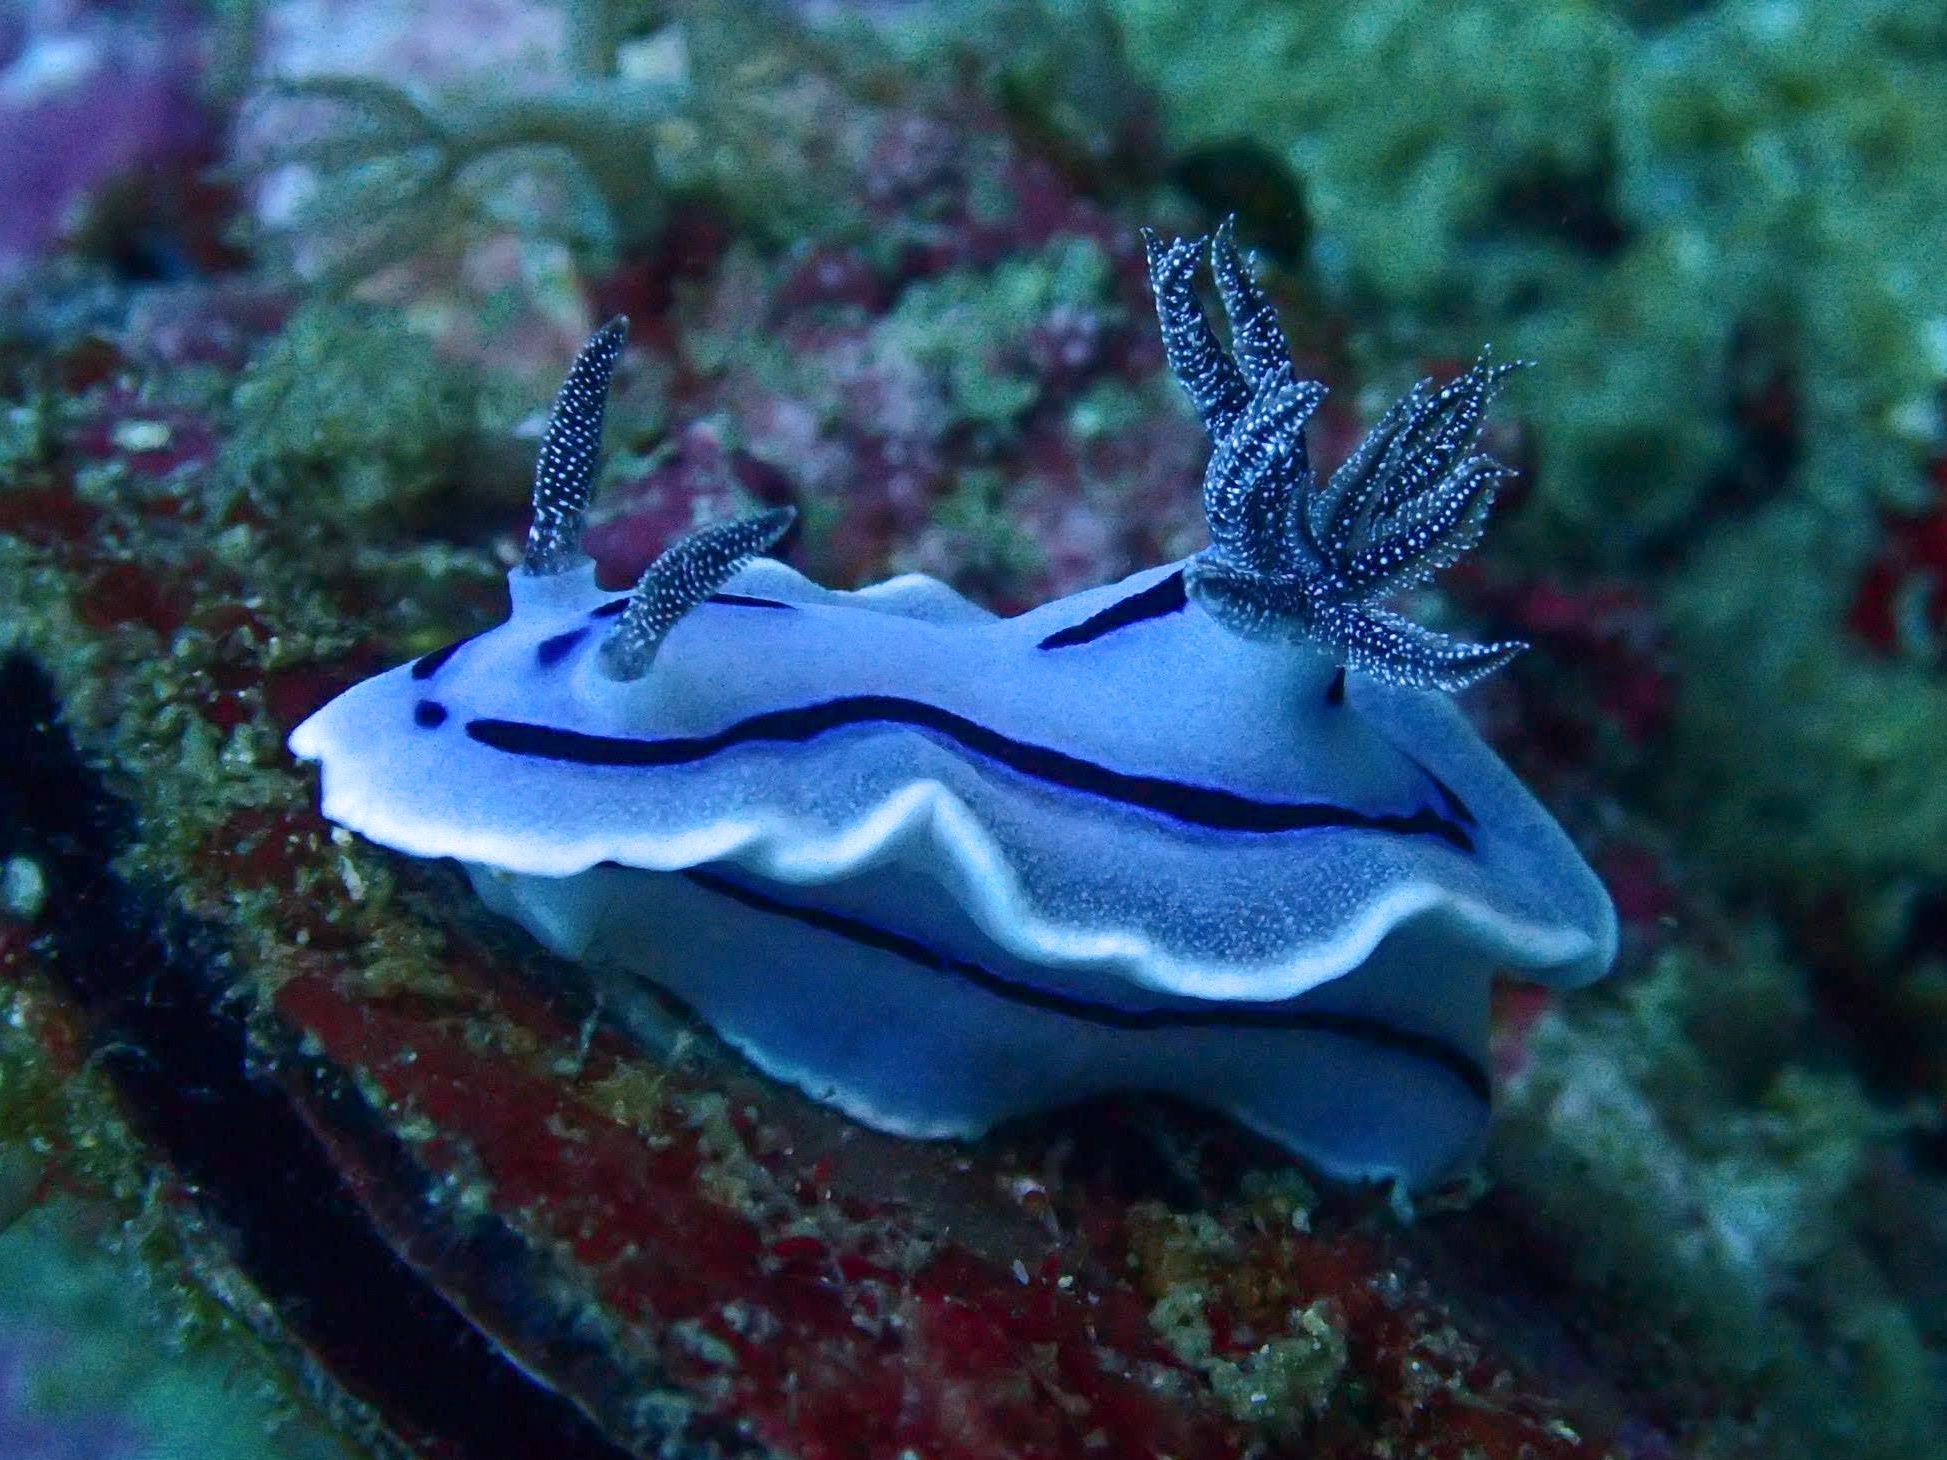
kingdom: Animalia
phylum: Mollusca
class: Gastropoda
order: Nudibranchia
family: Chromodorididae
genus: Chromodoris
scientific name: Chromodoris willani
